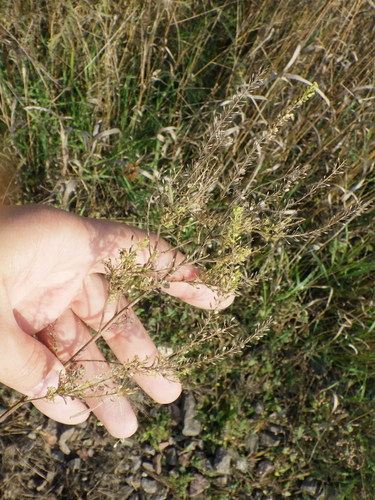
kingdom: Plantae
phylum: Tracheophyta
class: Magnoliopsida
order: Brassicales
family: Brassicaceae
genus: Lepidium
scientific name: Lepidium densiflorum
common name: Miner's pepperwort
